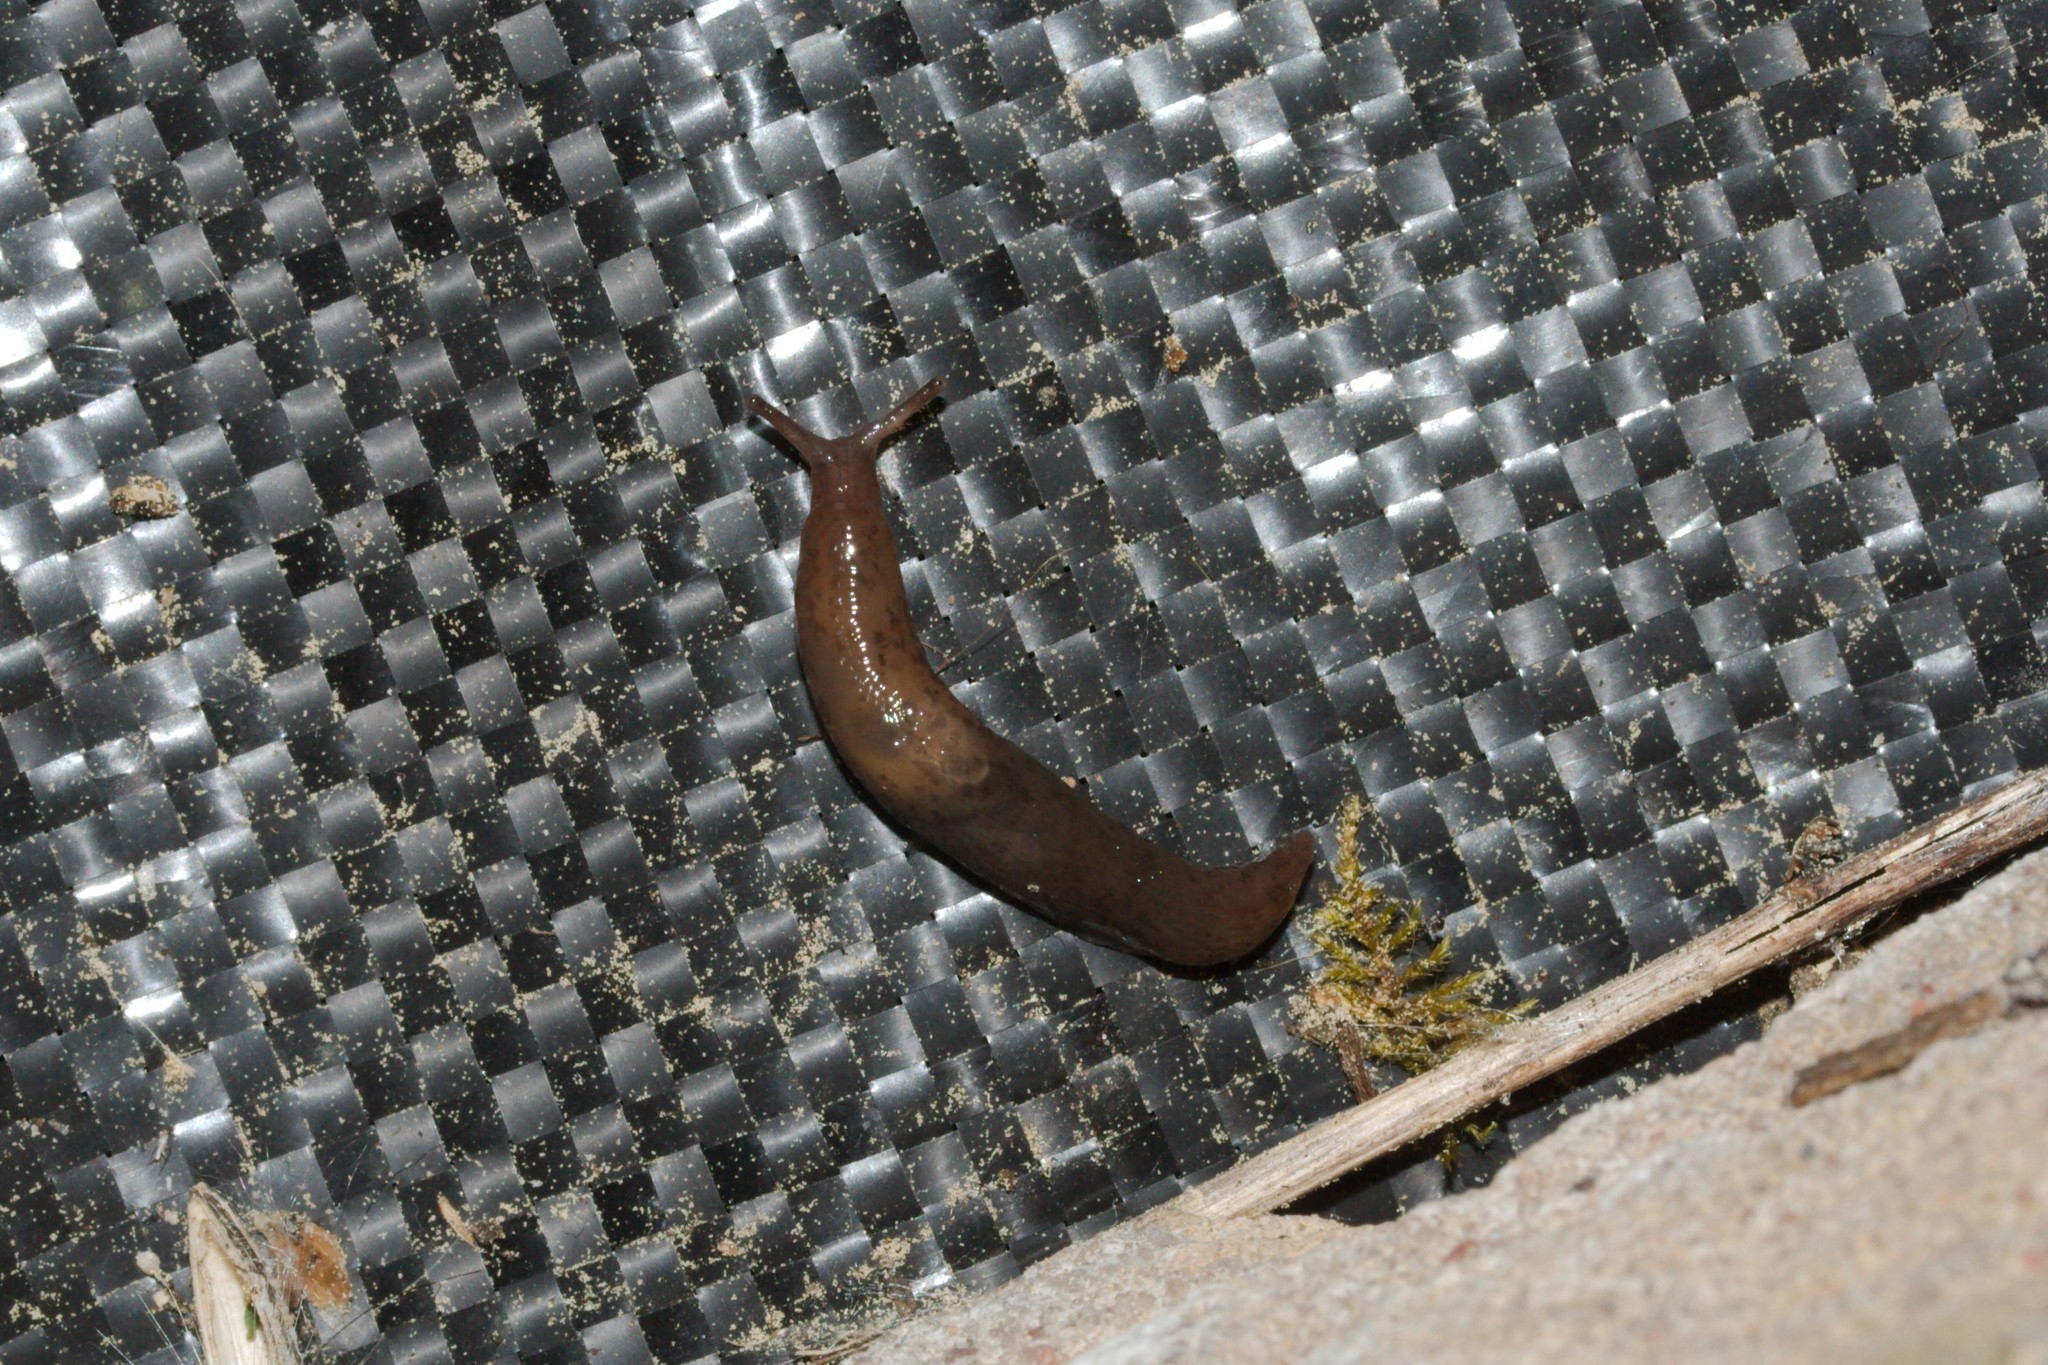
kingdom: Animalia
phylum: Mollusca
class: Gastropoda
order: Stylommatophora
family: Agriolimacidae
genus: Deroceras
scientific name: Deroceras
